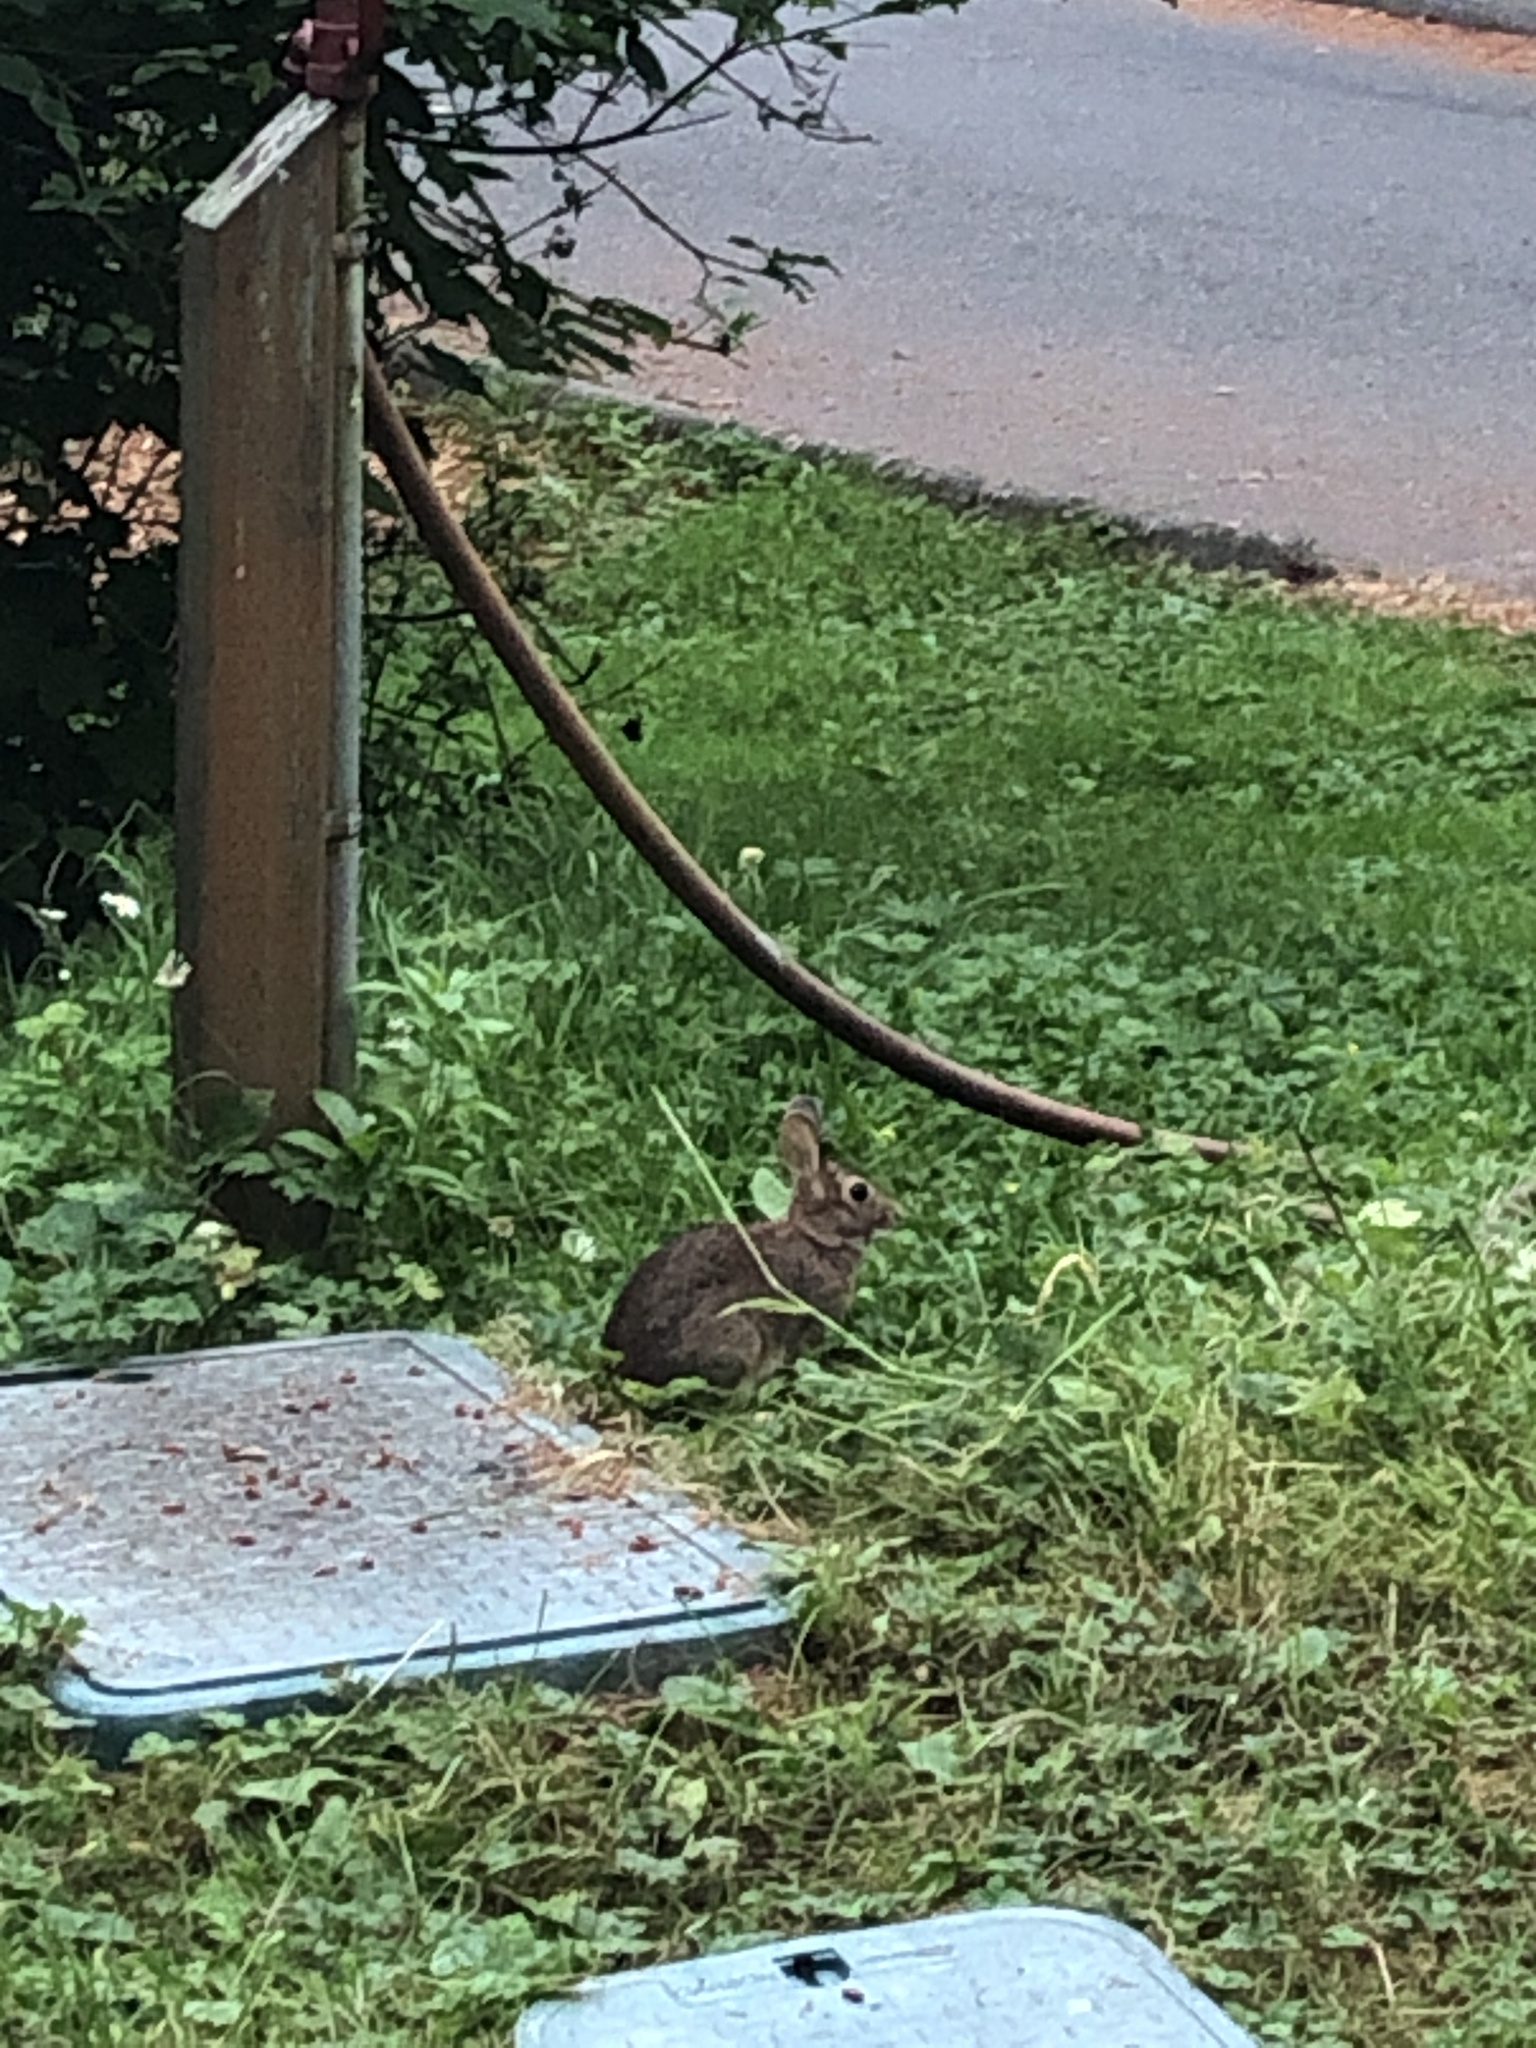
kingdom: Animalia
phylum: Chordata
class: Mammalia
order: Lagomorpha
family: Leporidae
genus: Sylvilagus
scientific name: Sylvilagus floridanus
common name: Eastern cottontail
